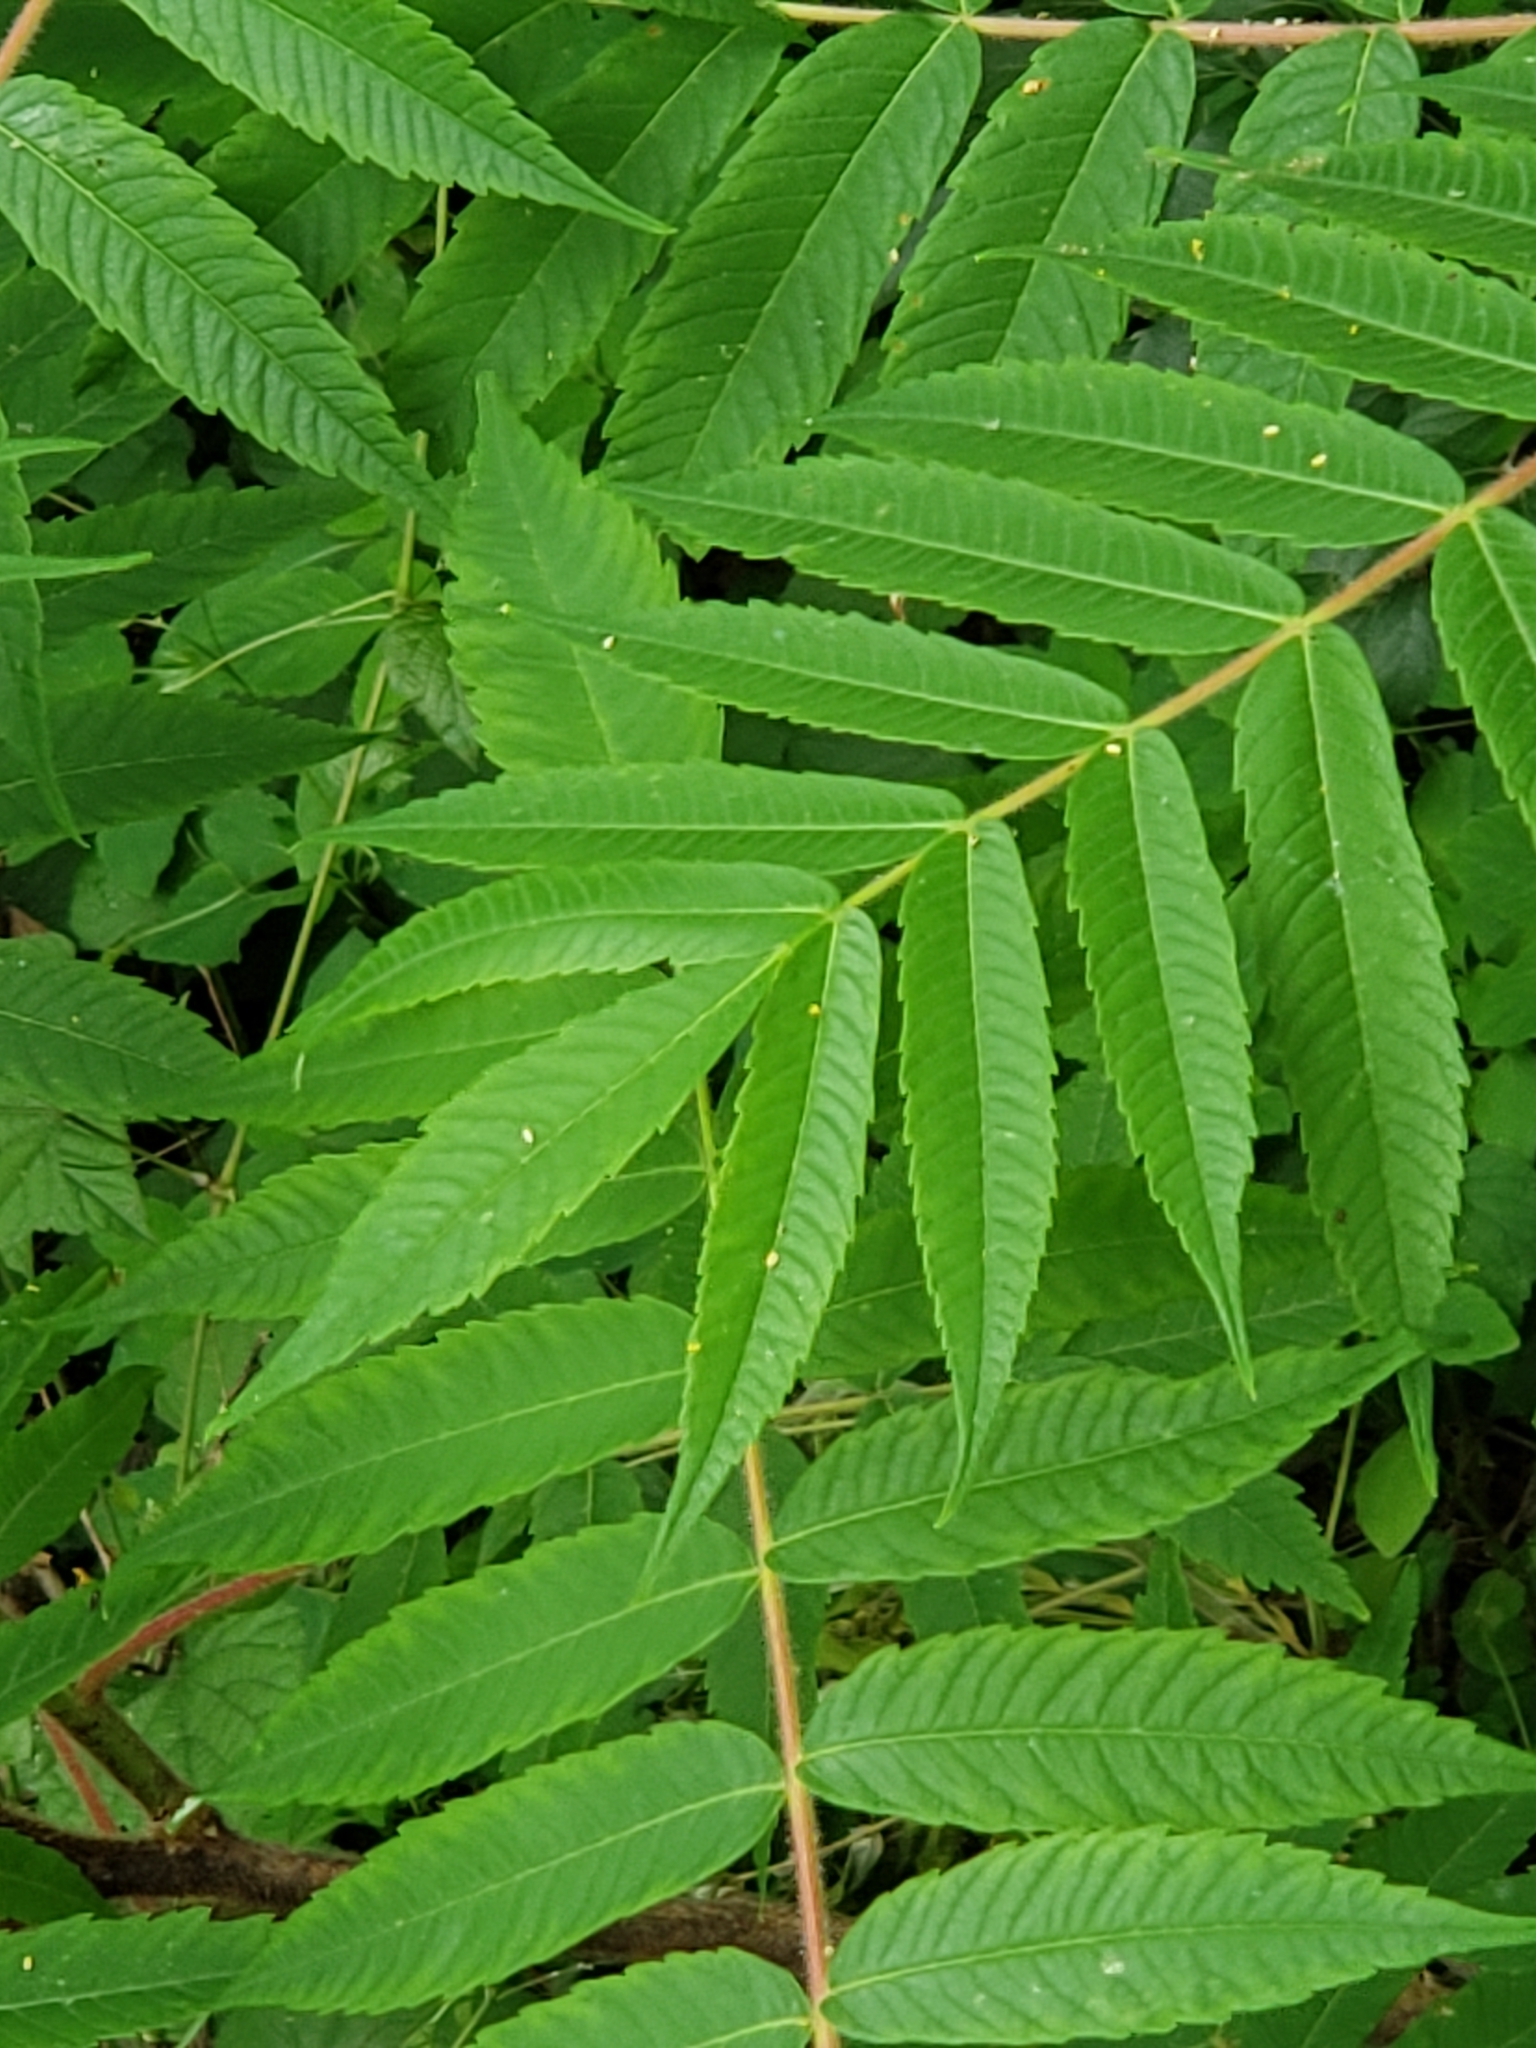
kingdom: Plantae
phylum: Tracheophyta
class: Magnoliopsida
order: Sapindales
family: Anacardiaceae
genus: Rhus
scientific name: Rhus typhina
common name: Staghorn sumac
